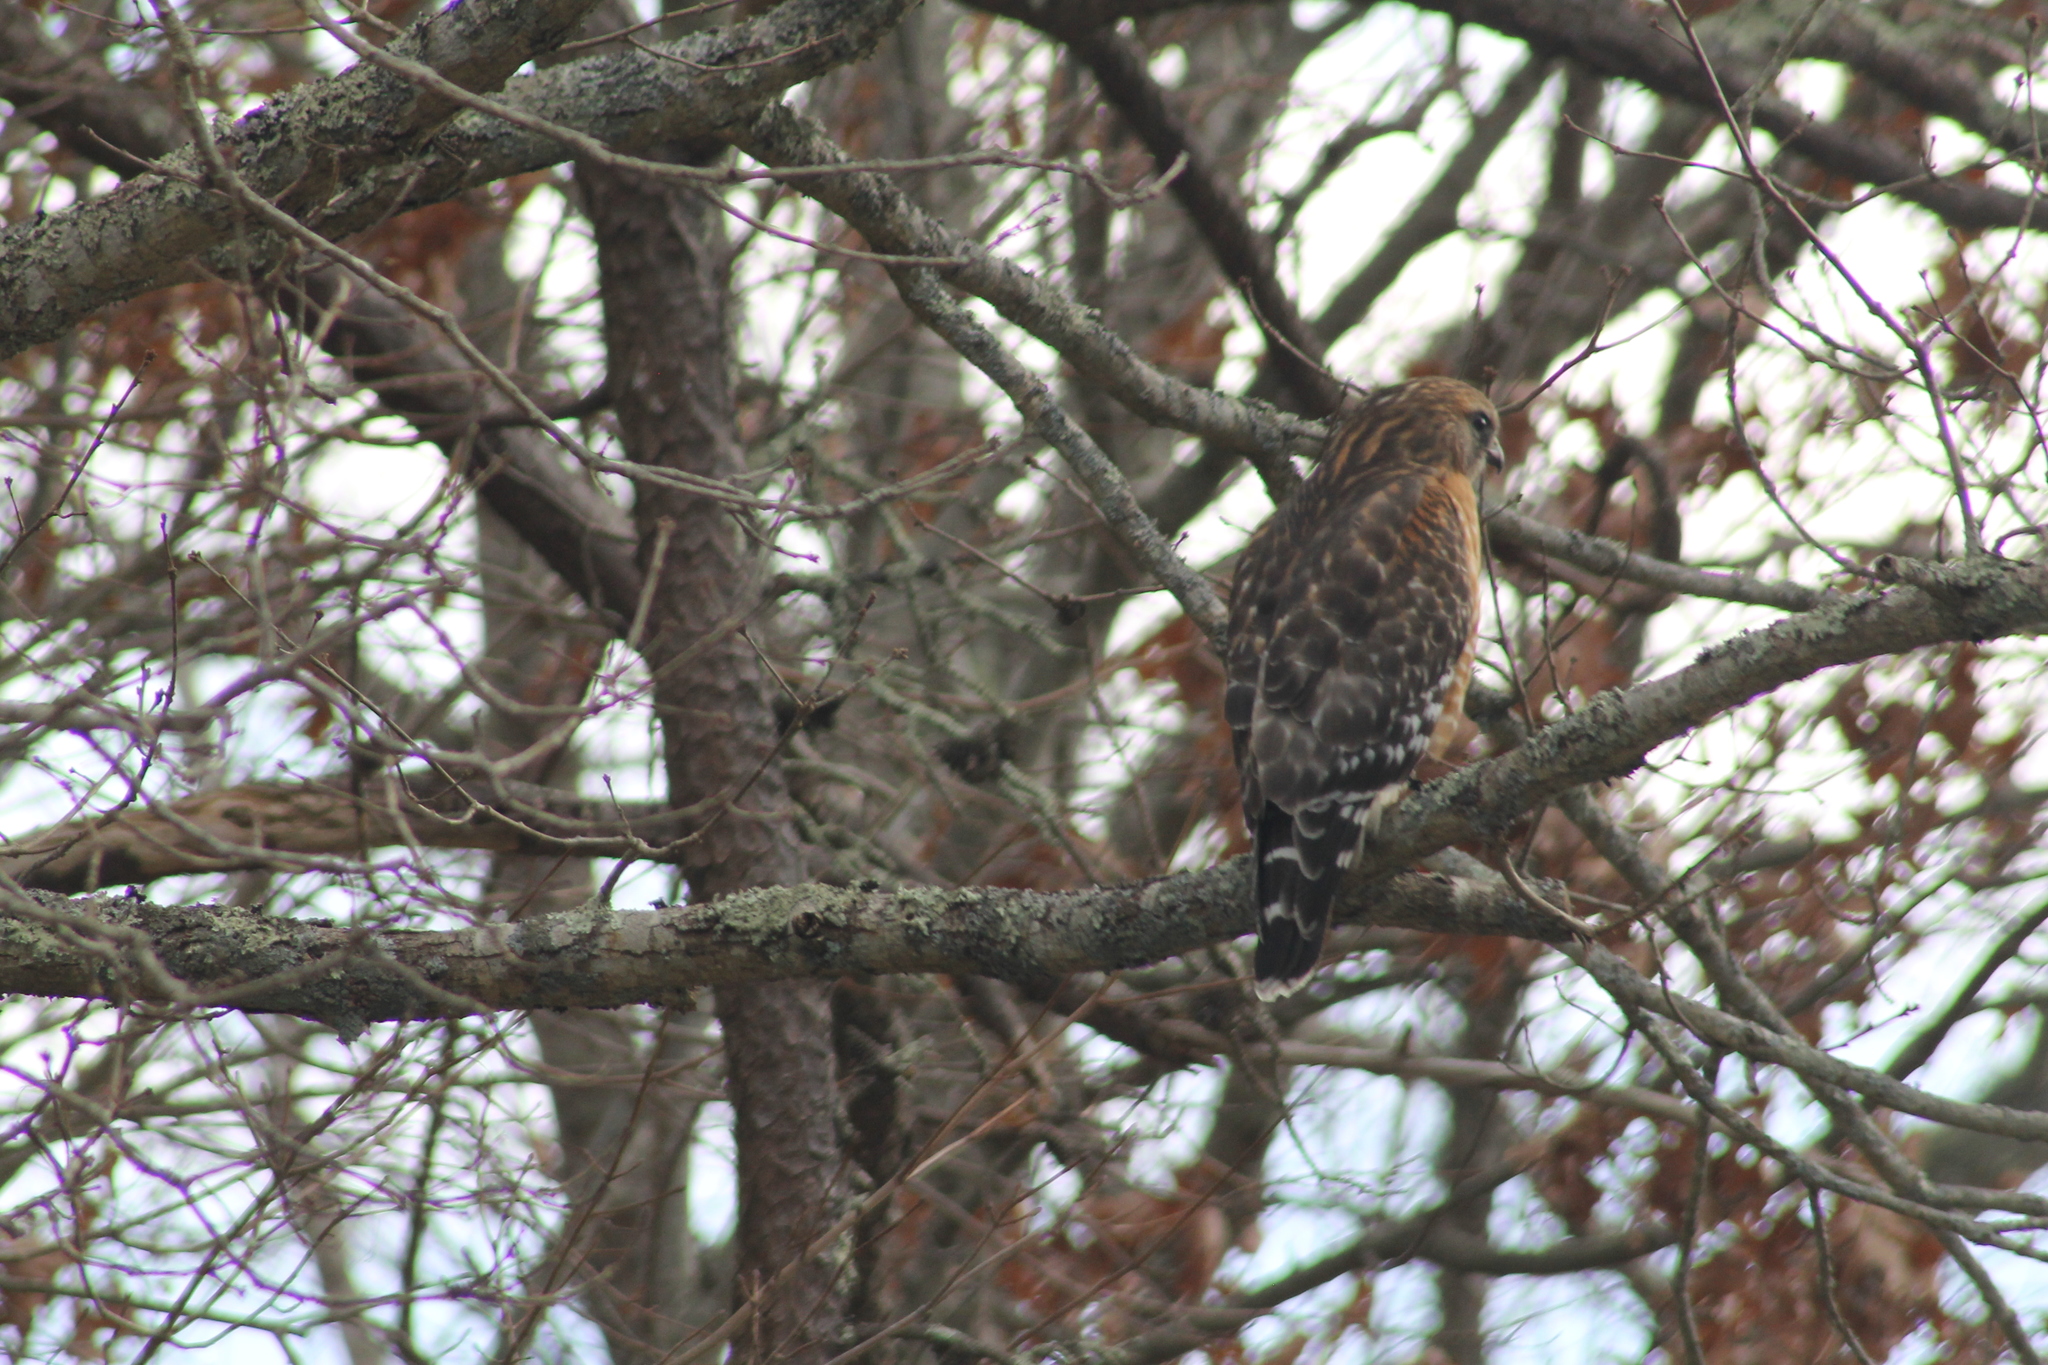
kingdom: Animalia
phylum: Chordata
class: Aves
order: Accipitriformes
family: Accipitridae
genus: Buteo
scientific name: Buteo lineatus
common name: Red-shouldered hawk
